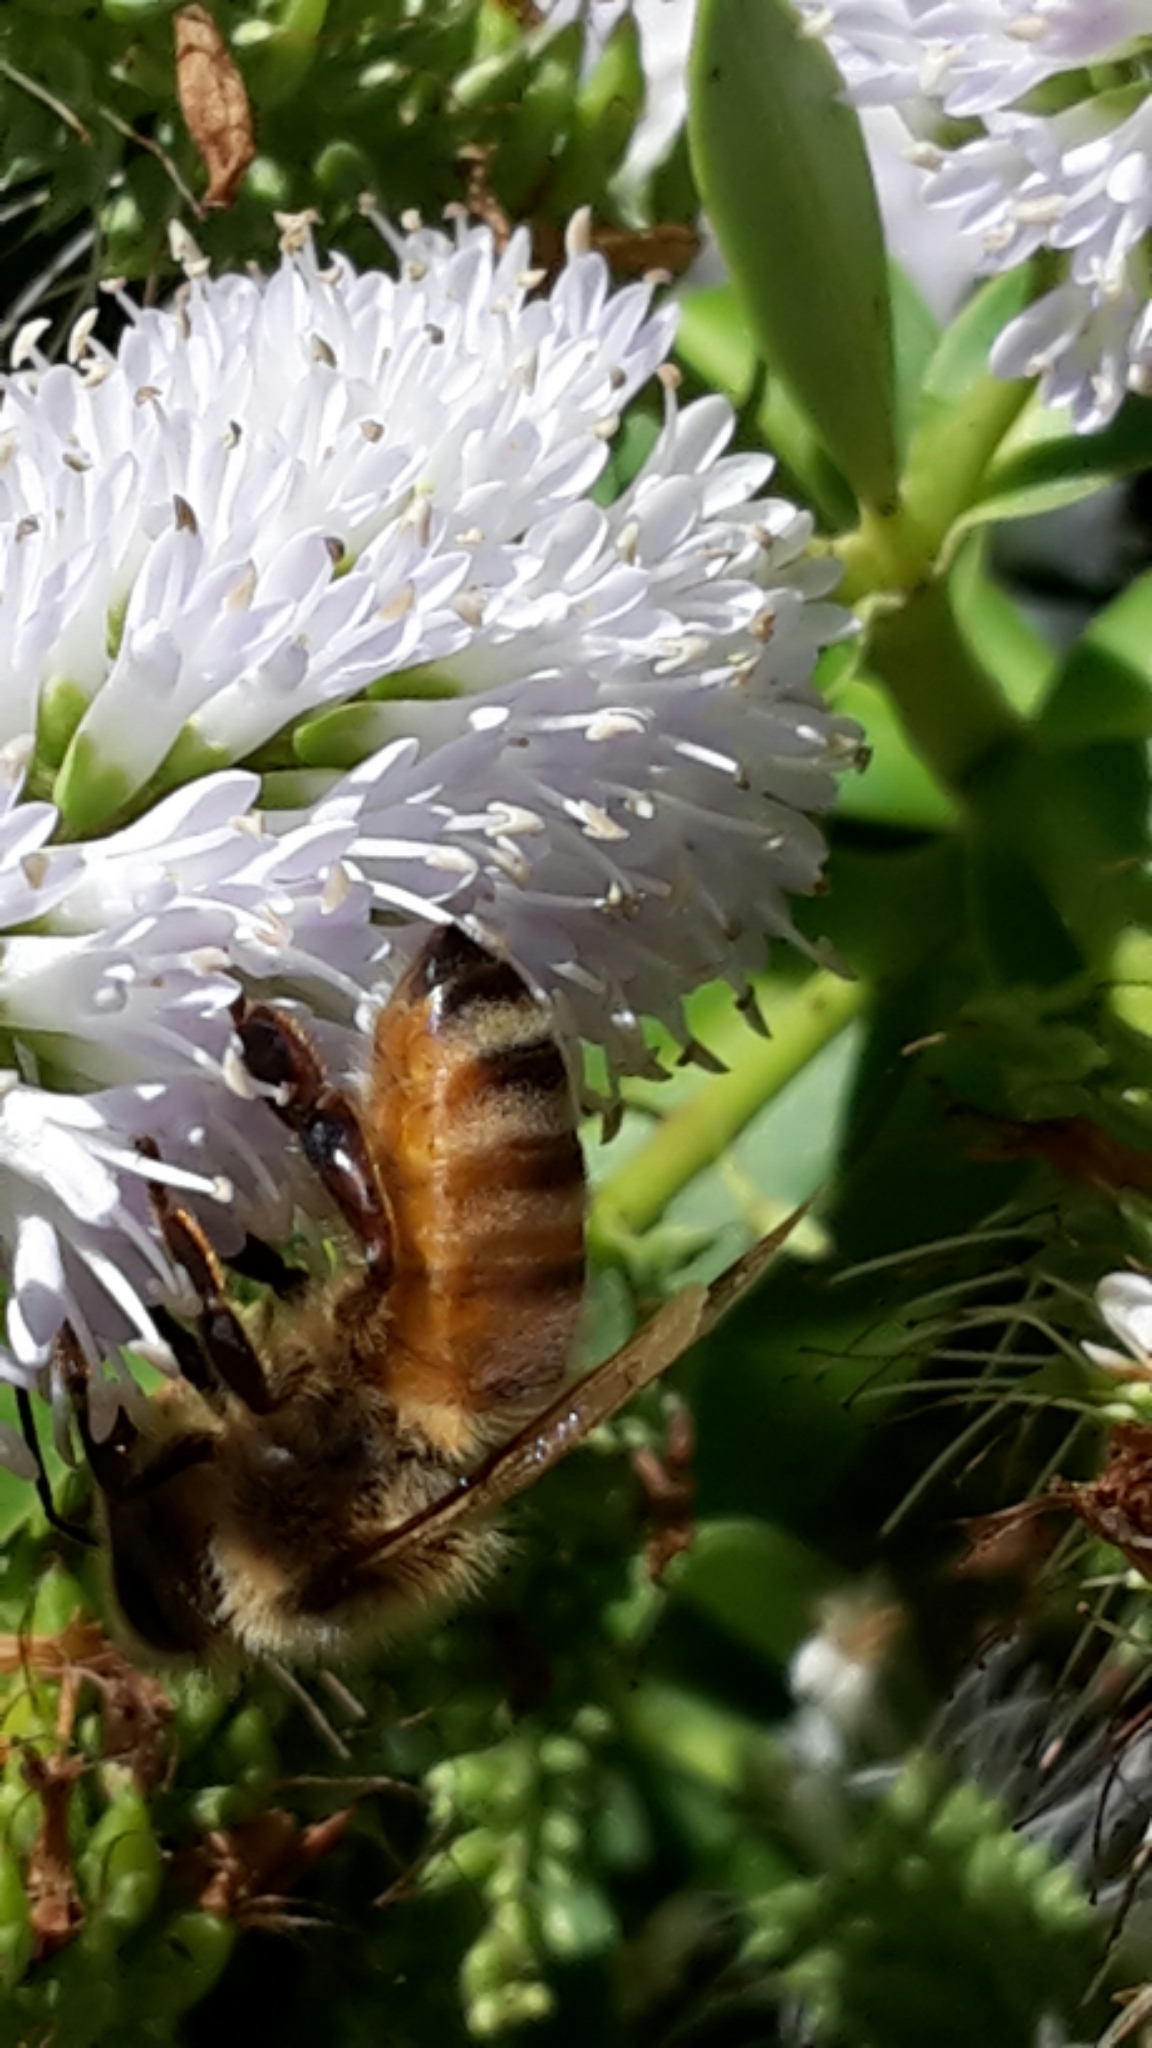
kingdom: Animalia
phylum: Arthropoda
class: Insecta
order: Hymenoptera
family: Apidae
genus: Apis
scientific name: Apis mellifera
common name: Honey bee
